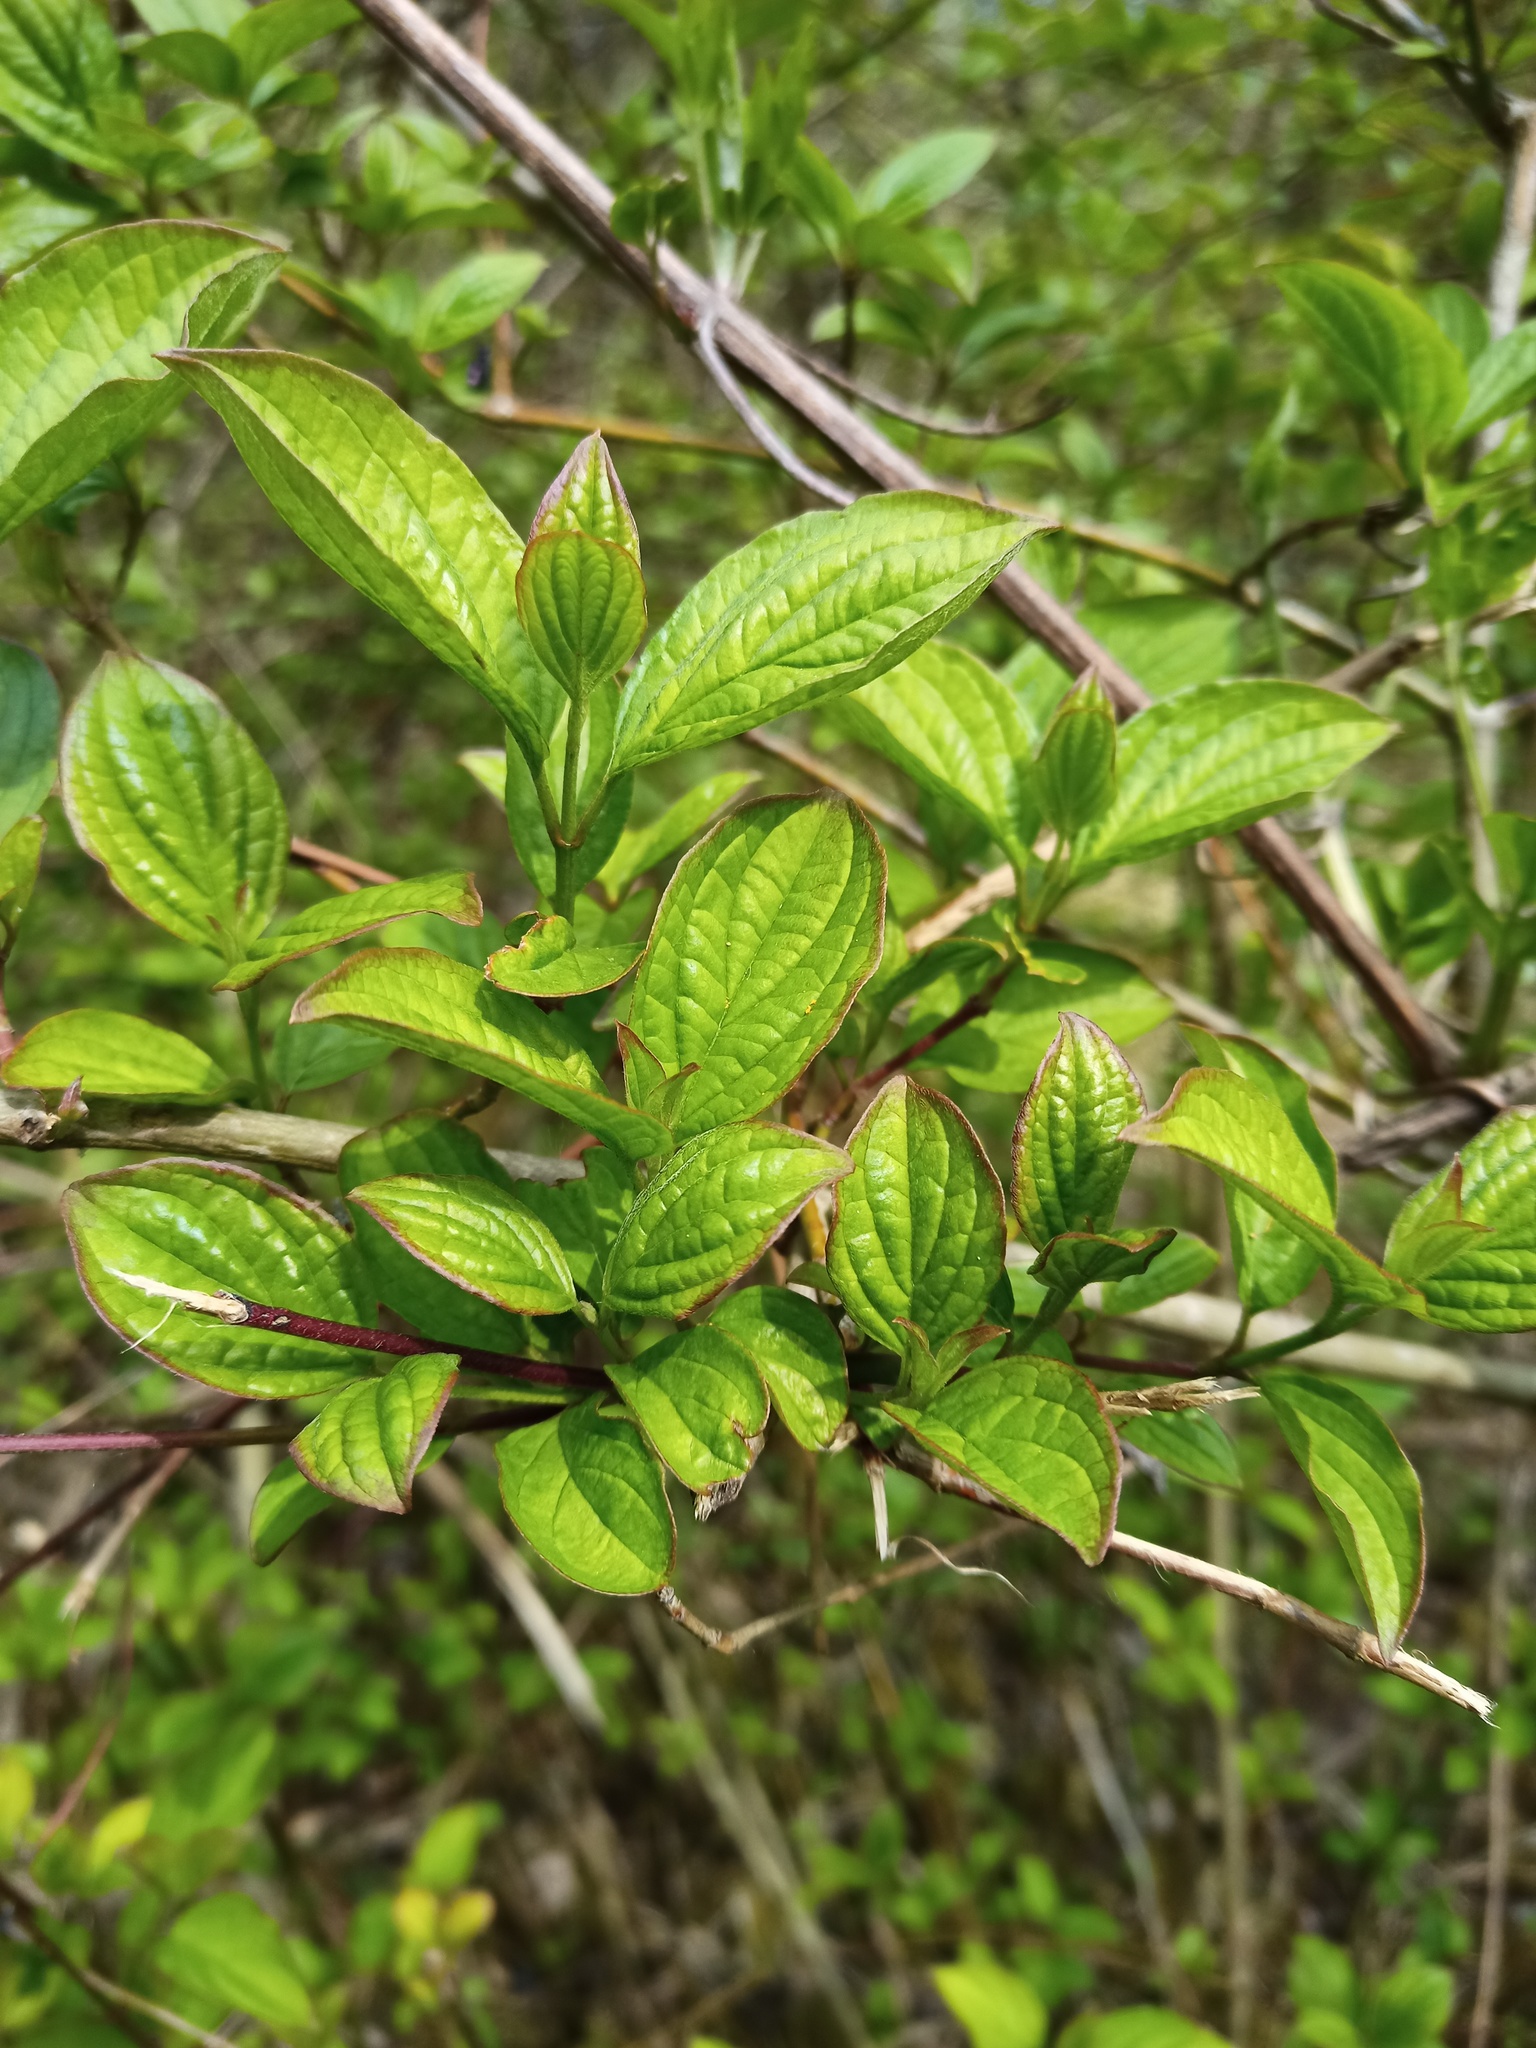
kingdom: Plantae
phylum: Tracheophyta
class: Magnoliopsida
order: Cornales
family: Cornaceae
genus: Cornus
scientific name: Cornus sanguinea
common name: Dogwood
